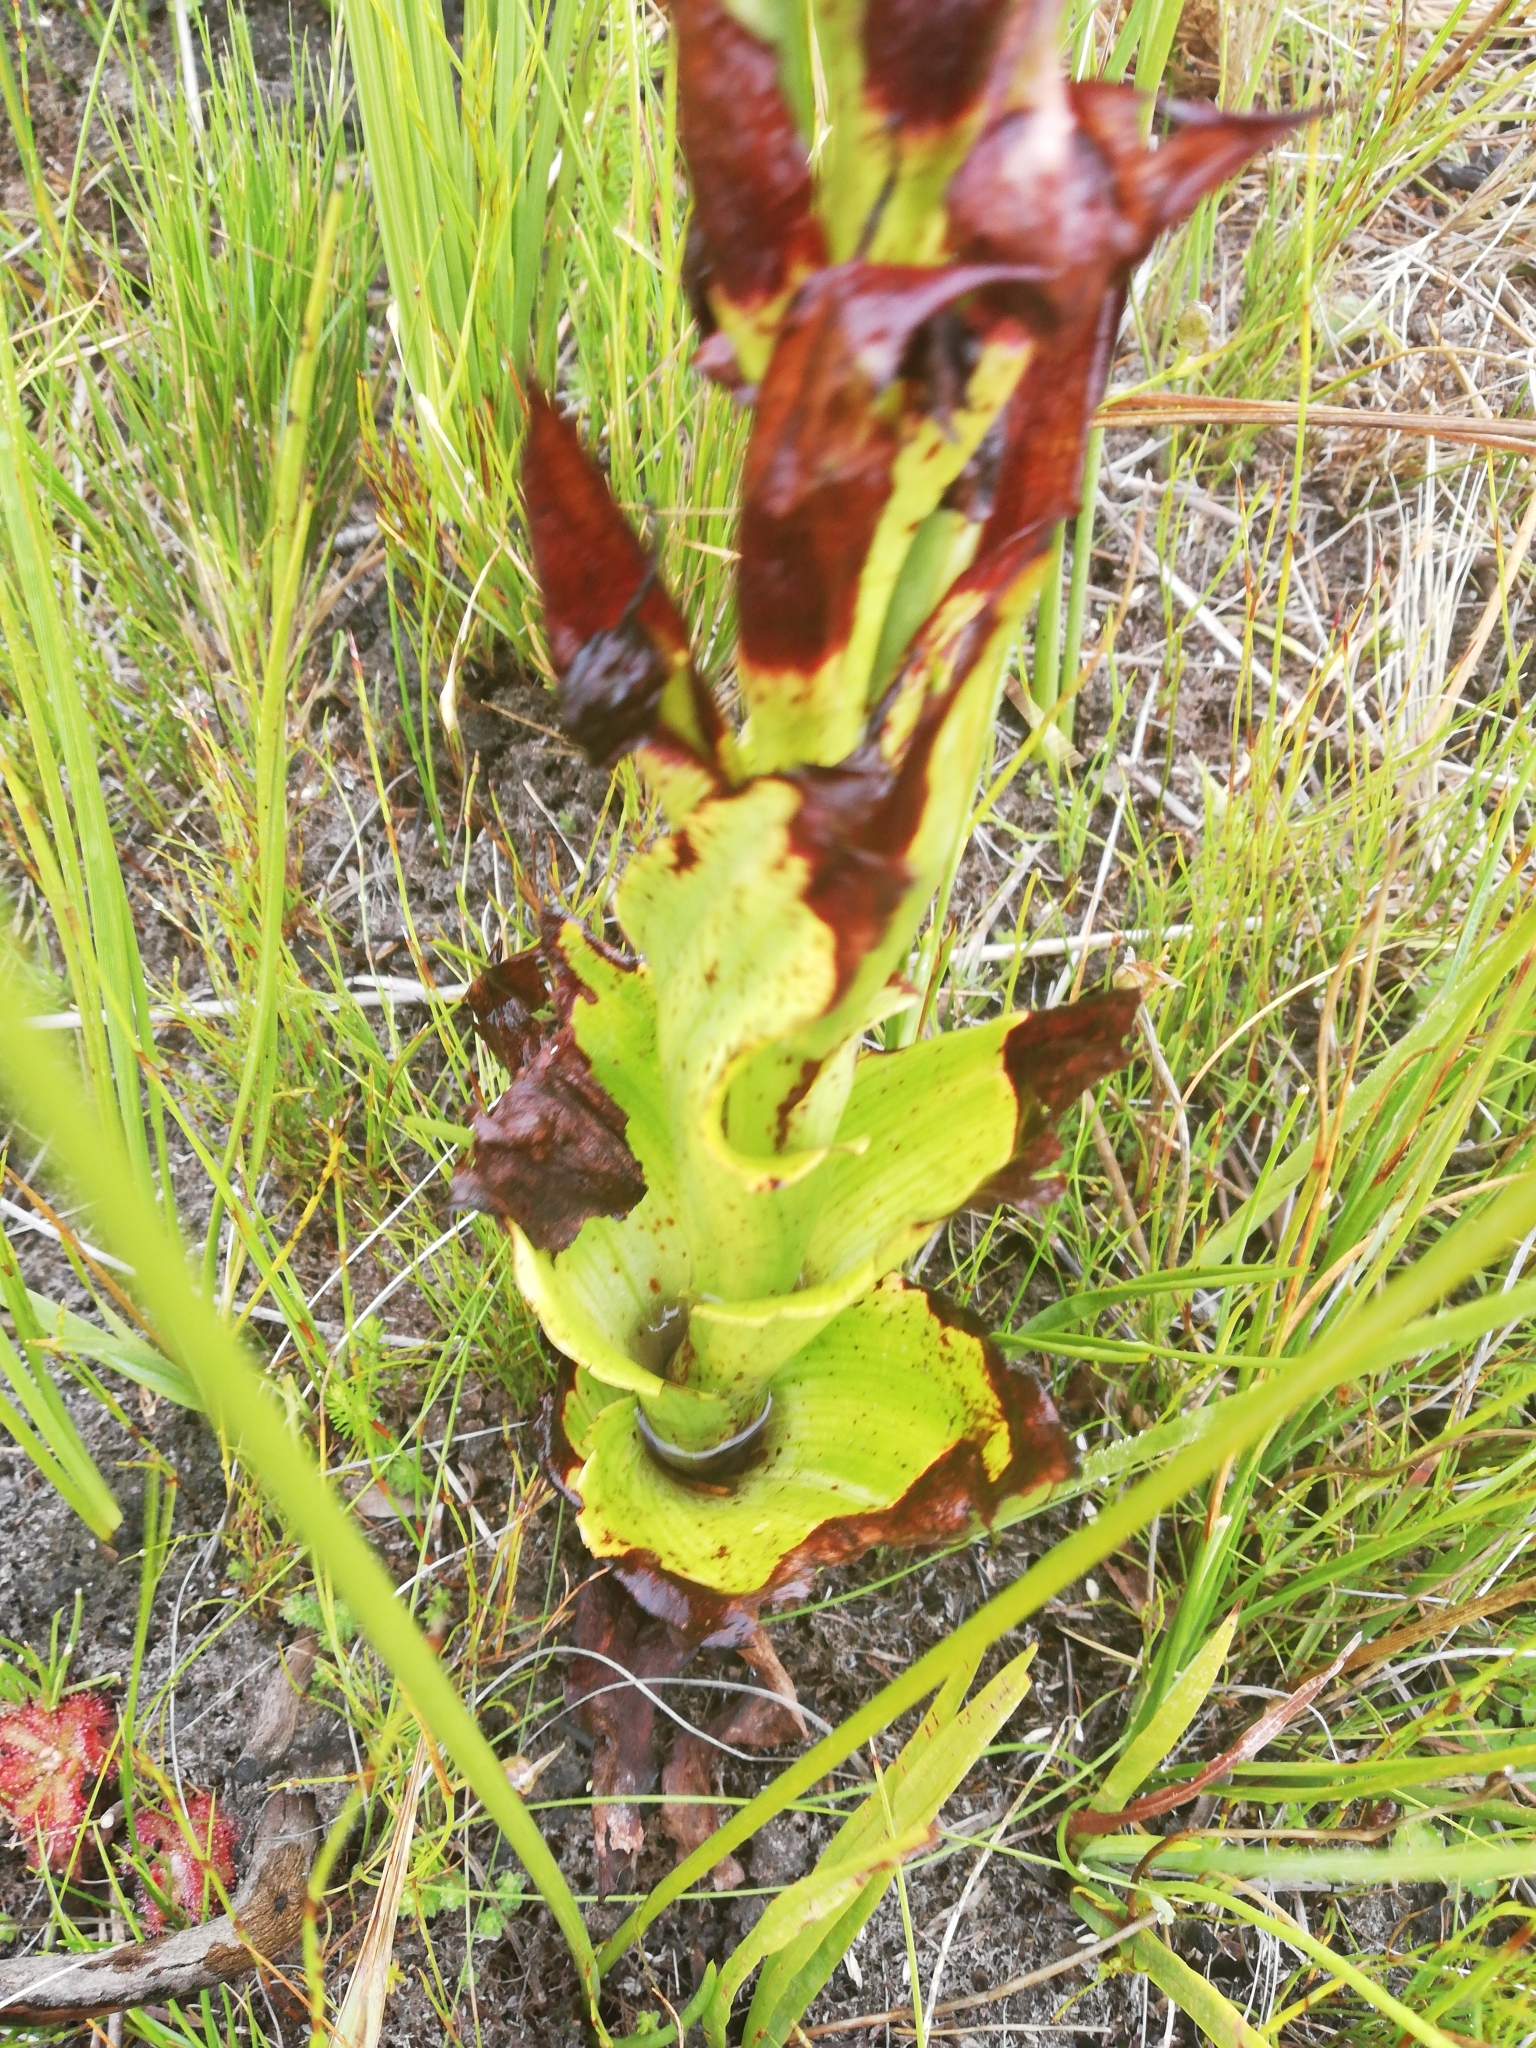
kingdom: Plantae
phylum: Tracheophyta
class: Liliopsida
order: Asparagales
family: Orchidaceae
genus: Disa
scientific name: Disa cornuta
